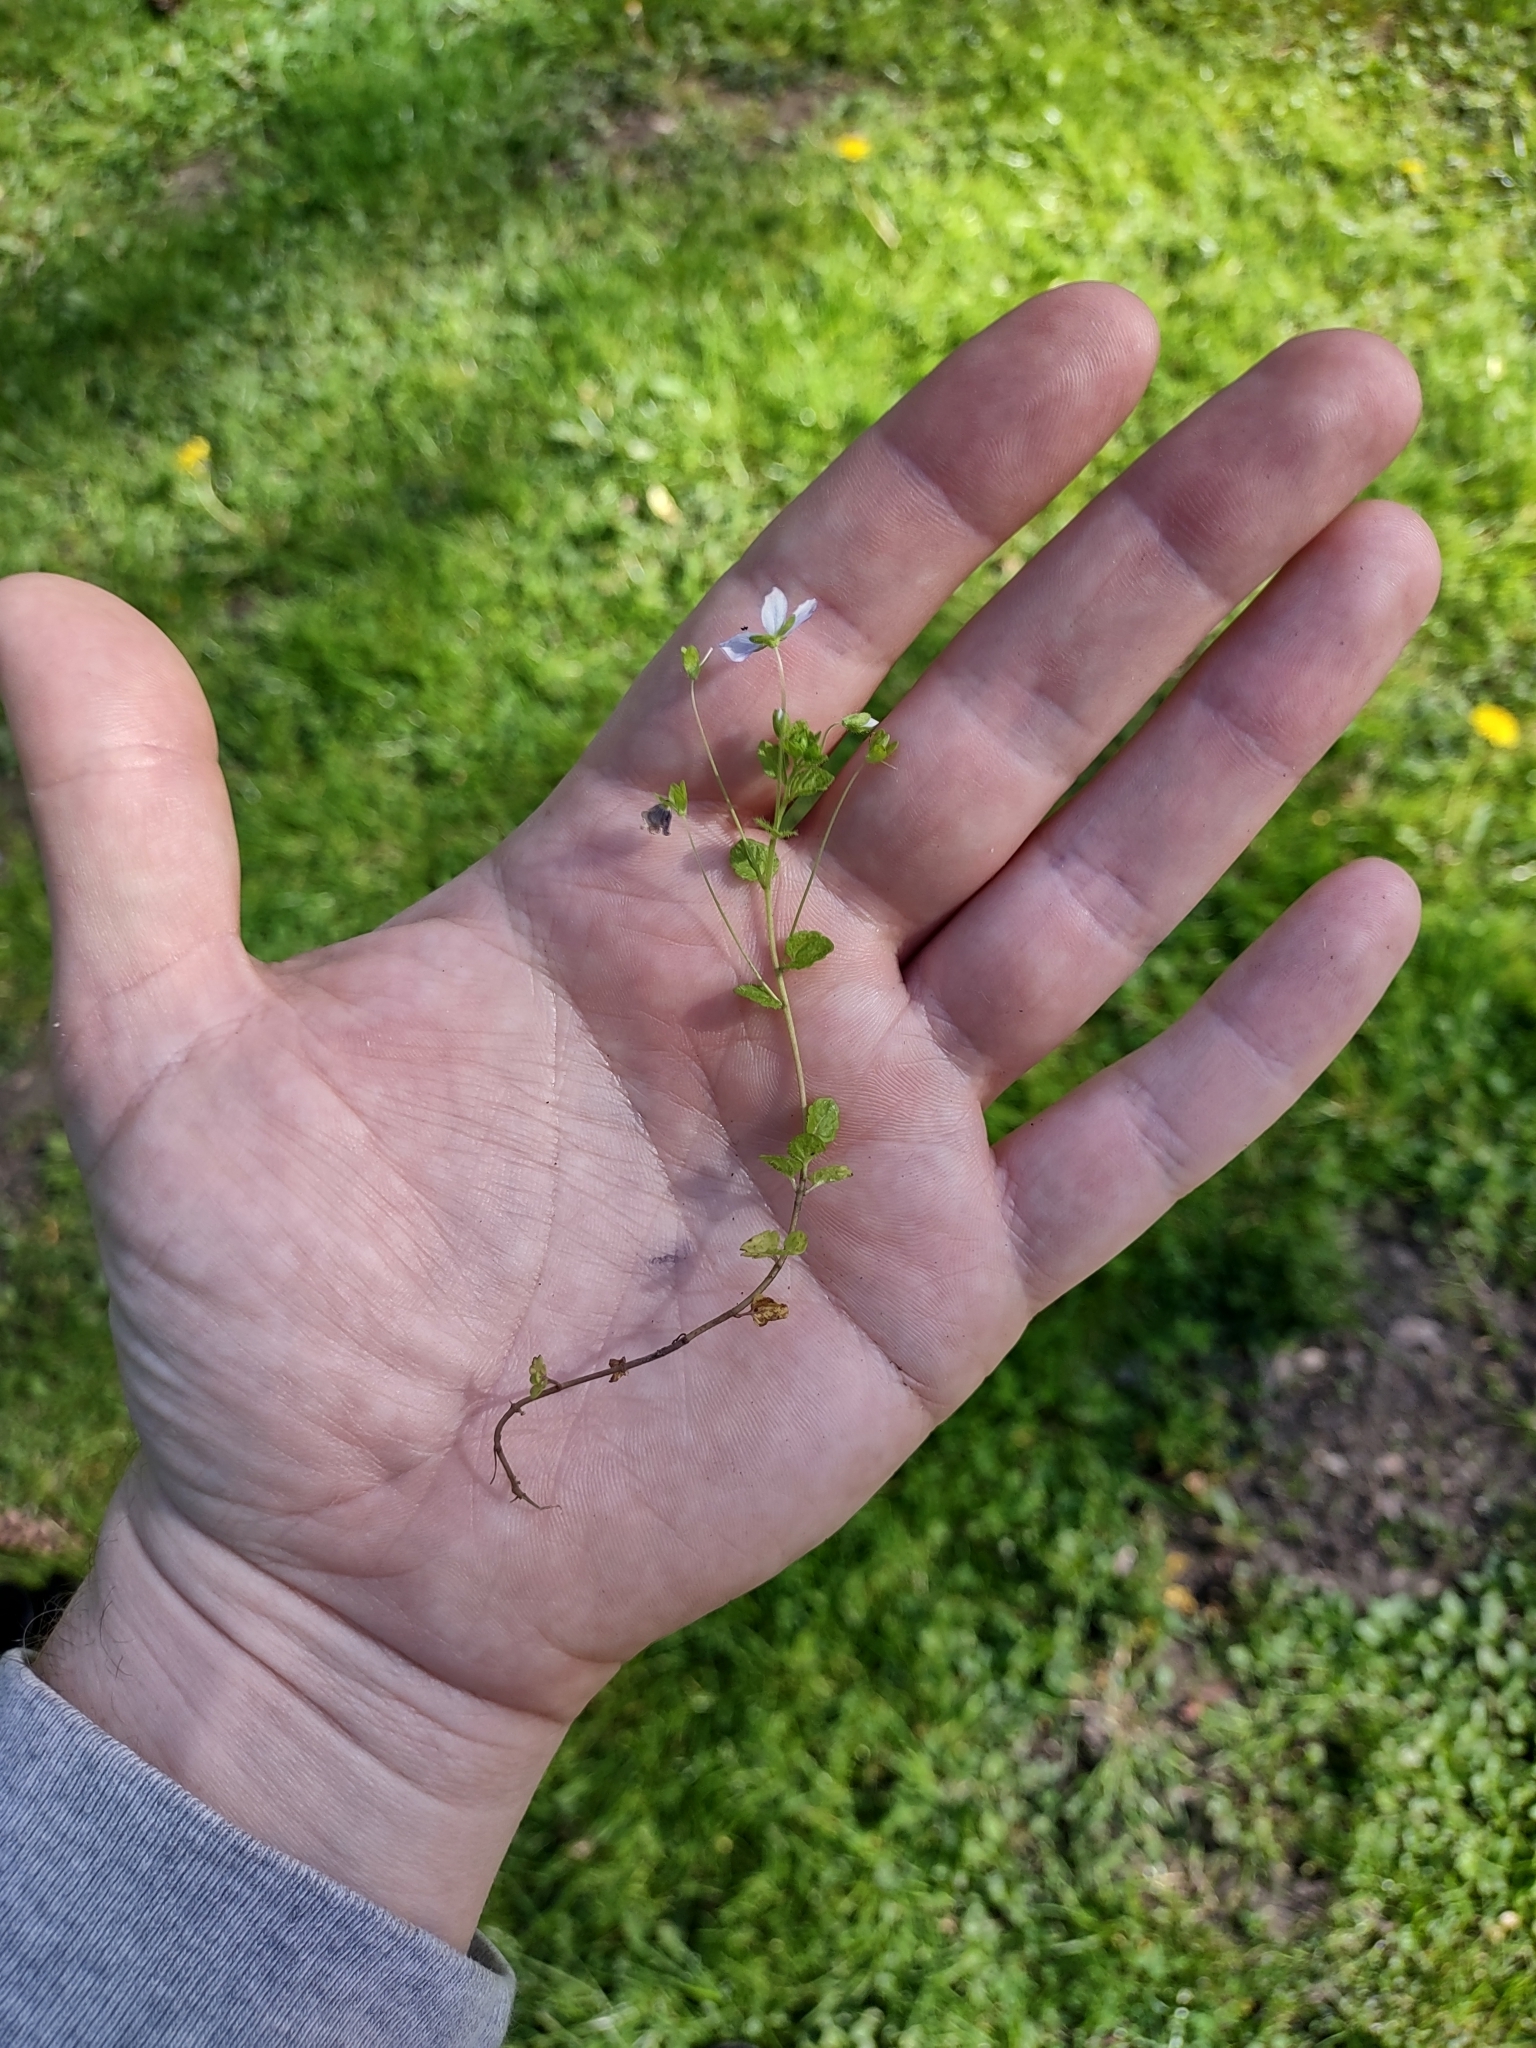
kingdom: Plantae
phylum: Tracheophyta
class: Magnoliopsida
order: Lamiales
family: Plantaginaceae
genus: Veronica
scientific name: Veronica filiformis
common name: Slender speedwell
